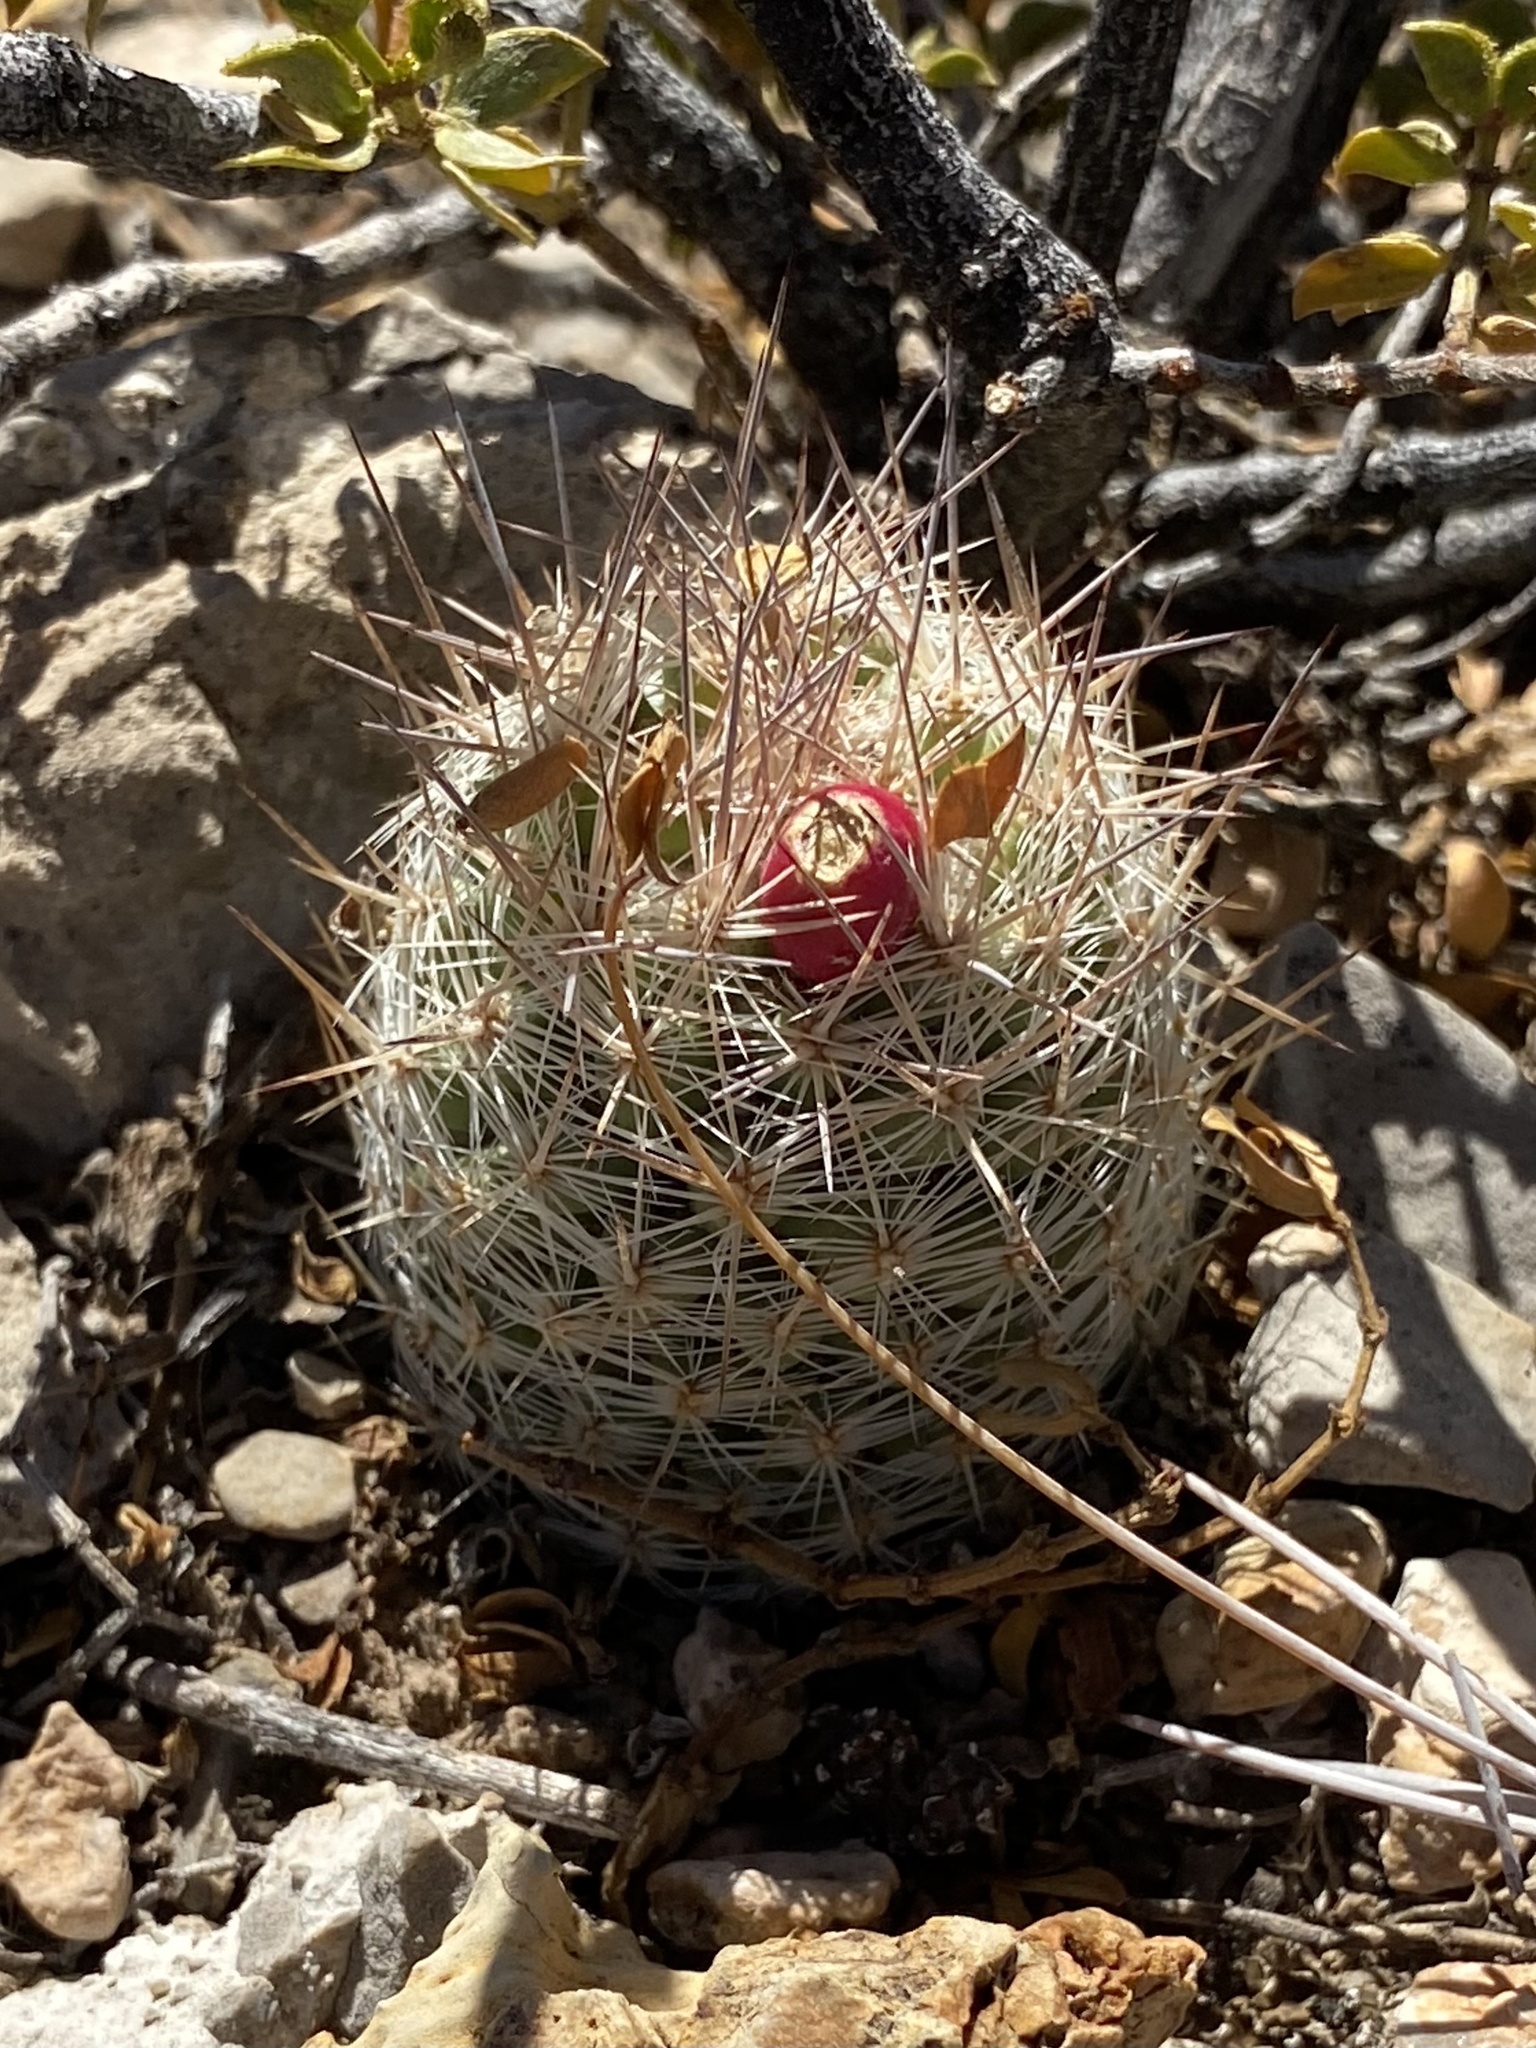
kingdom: Plantae
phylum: Tracheophyta
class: Magnoliopsida
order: Caryophyllales
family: Cactaceae
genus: Pelecyphora
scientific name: Pelecyphora tuberculosa
